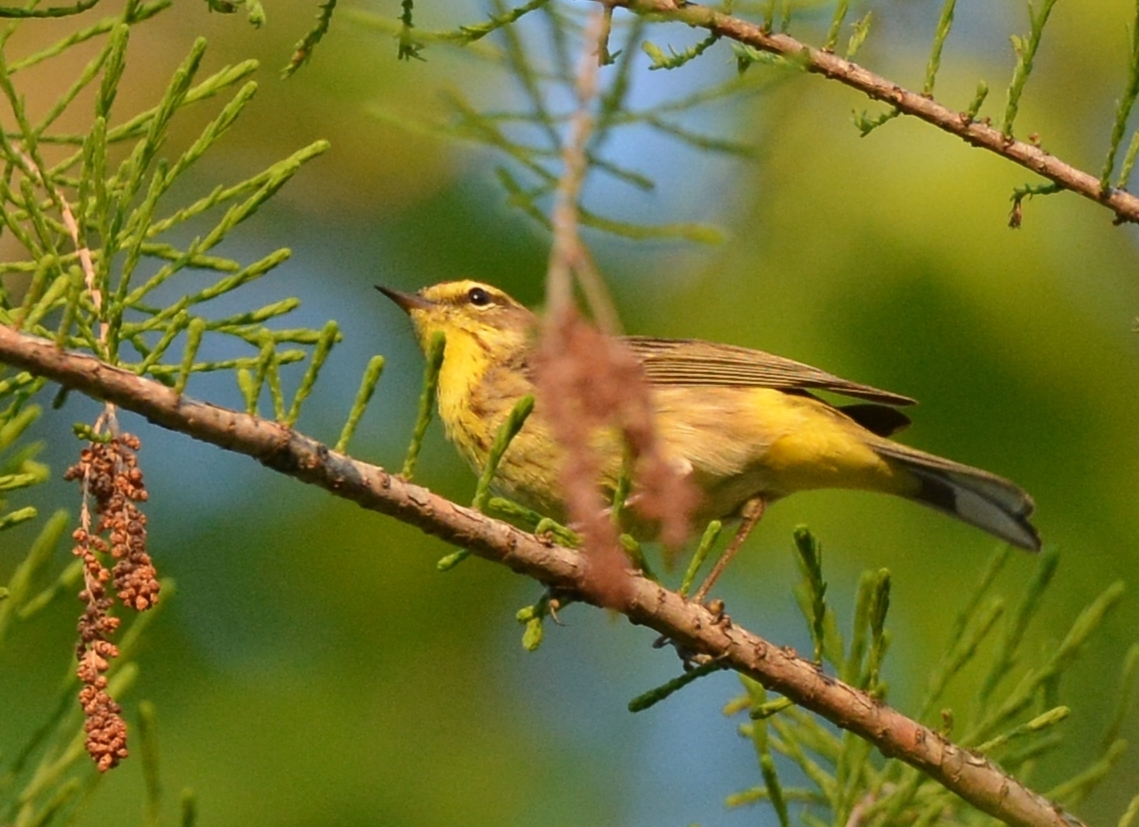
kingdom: Animalia
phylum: Chordata
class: Aves
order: Passeriformes
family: Parulidae
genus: Setophaga
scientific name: Setophaga palmarum
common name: Palm warbler
